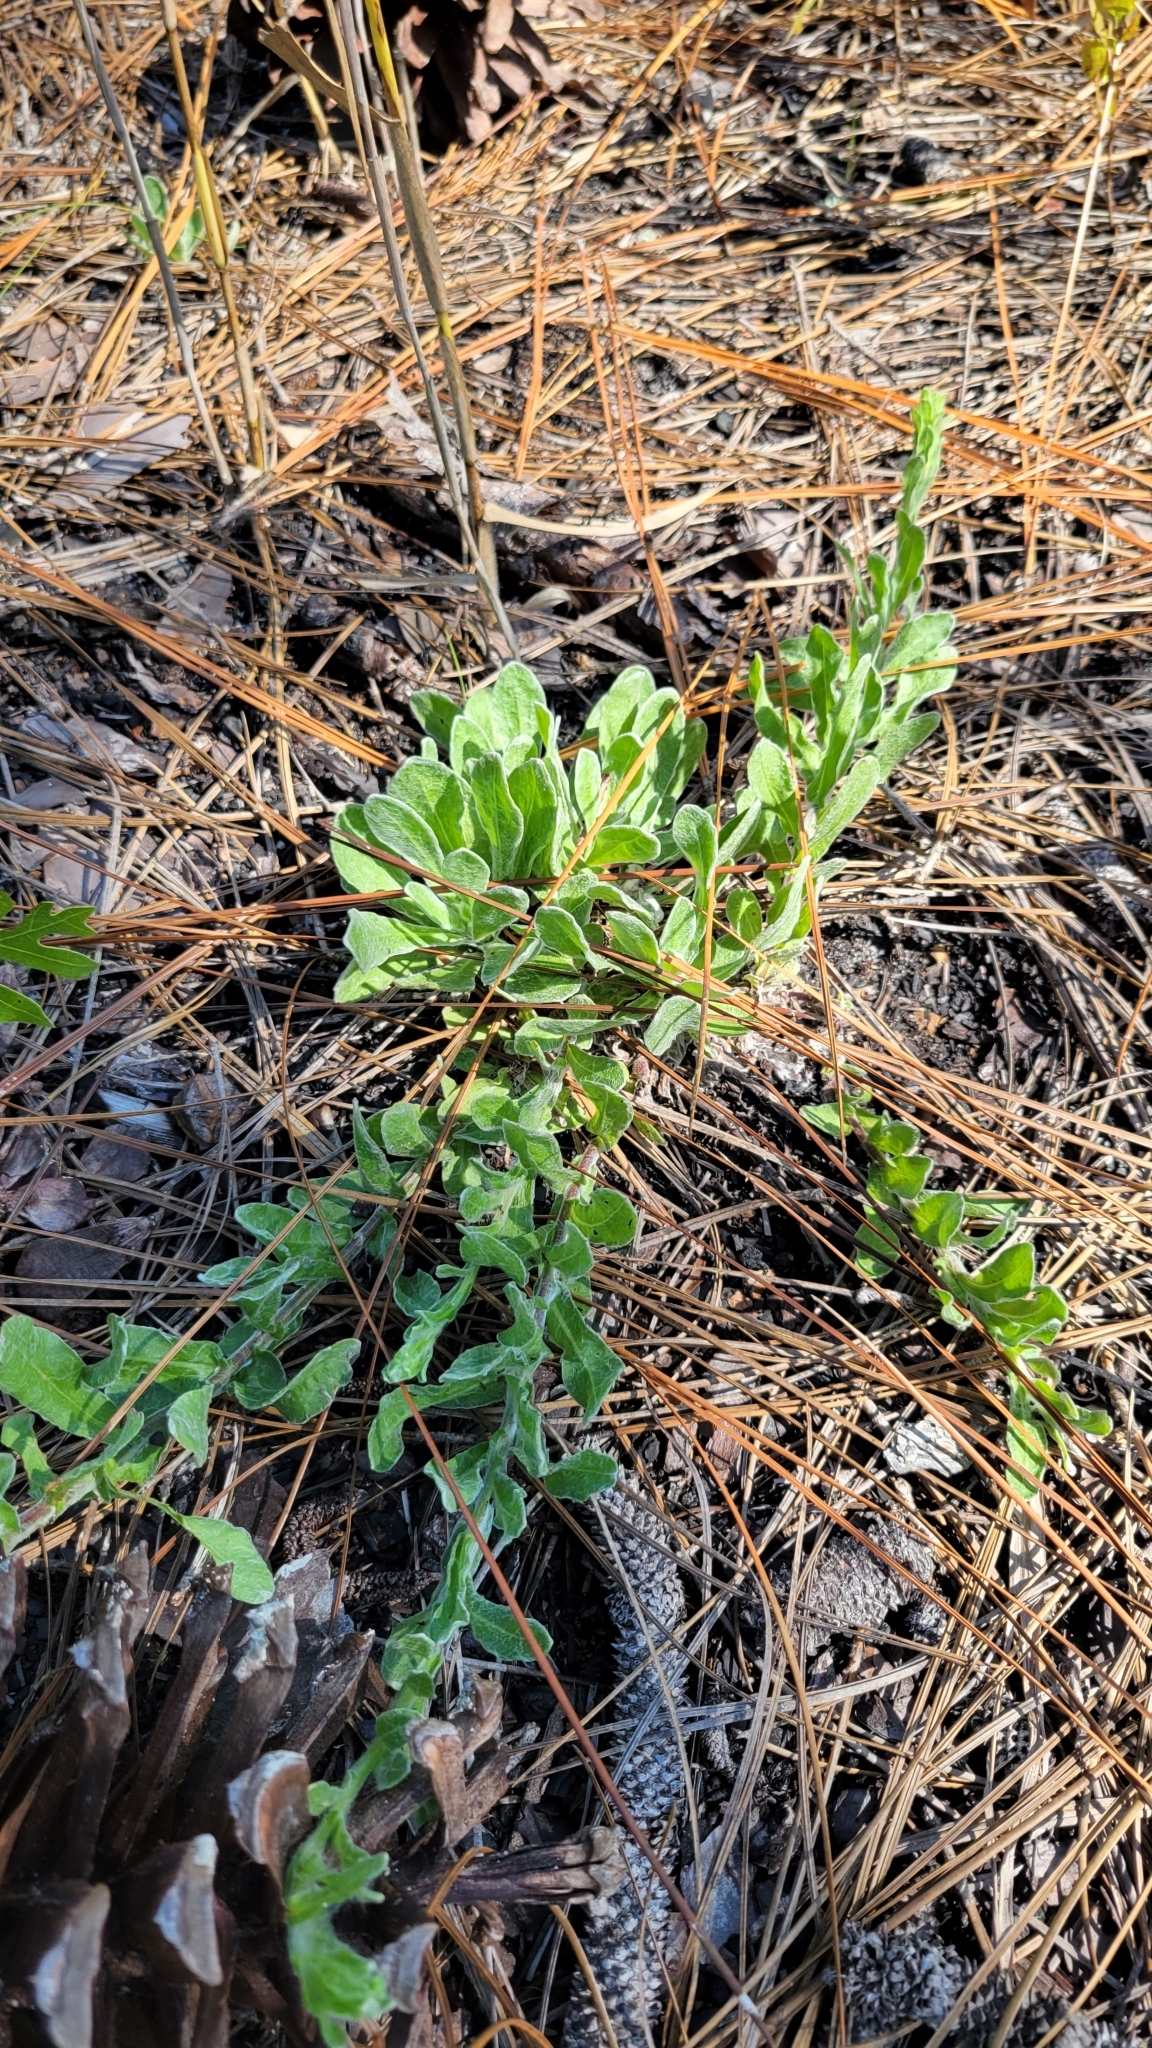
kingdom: Plantae
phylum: Tracheophyta
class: Magnoliopsida
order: Asterales
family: Asteraceae
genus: Chrysopsis
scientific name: Chrysopsis gossypina
